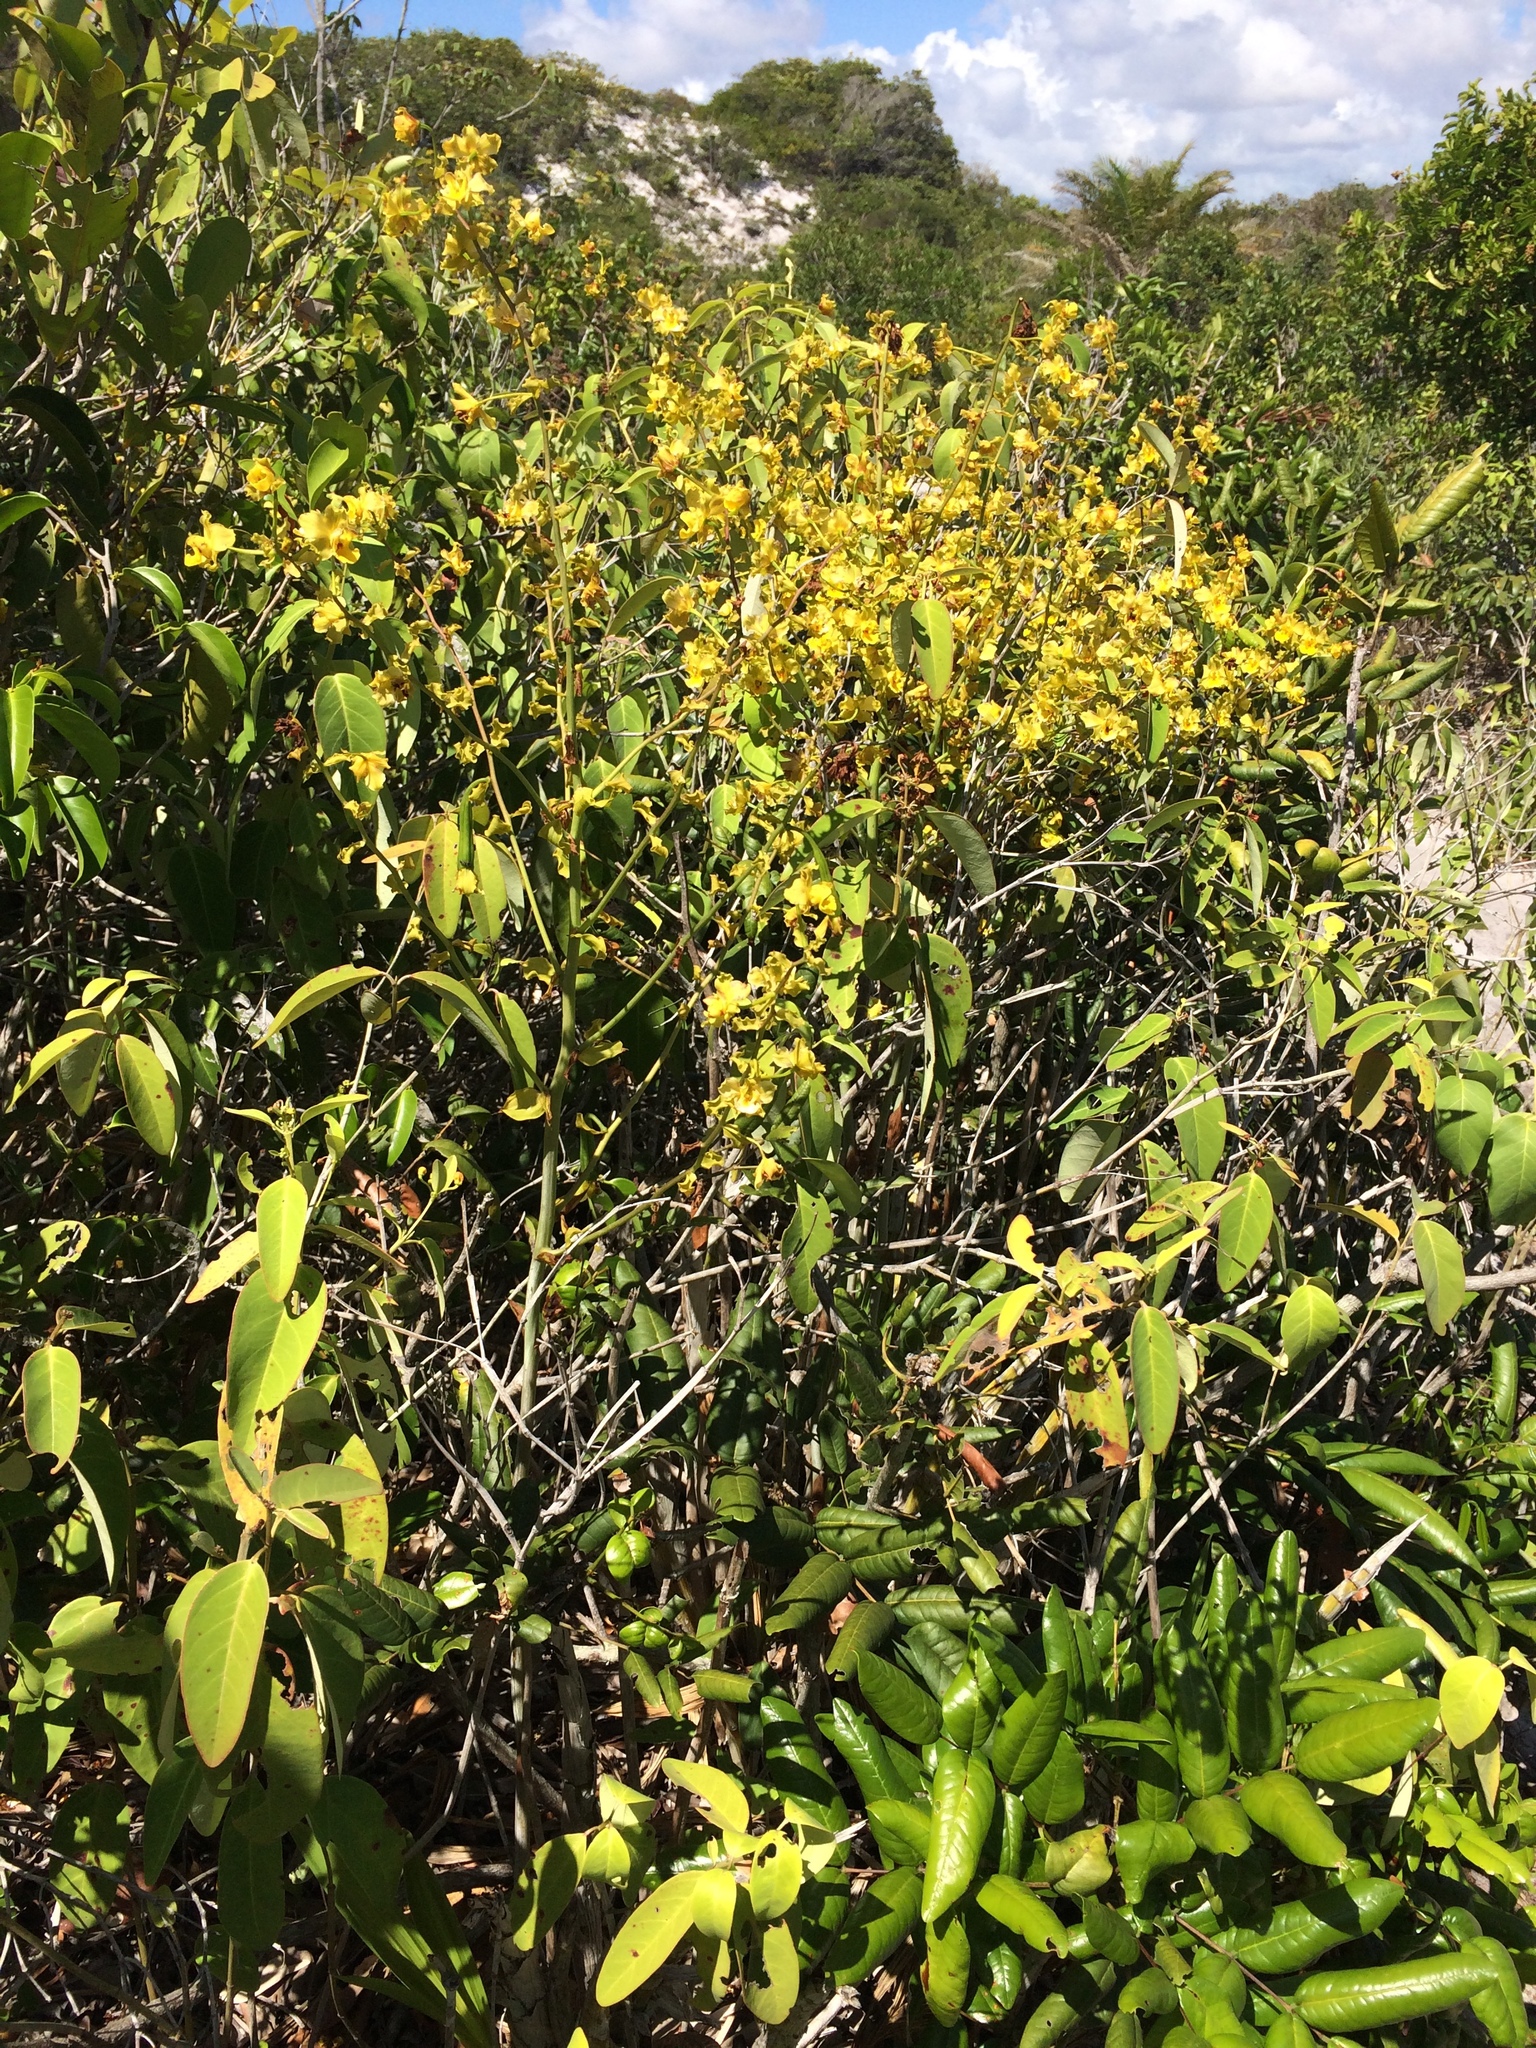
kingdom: Plantae
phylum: Tracheophyta
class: Liliopsida
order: Asparagales
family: Orchidaceae
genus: Cyrtopodium
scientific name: Cyrtopodium flavum
